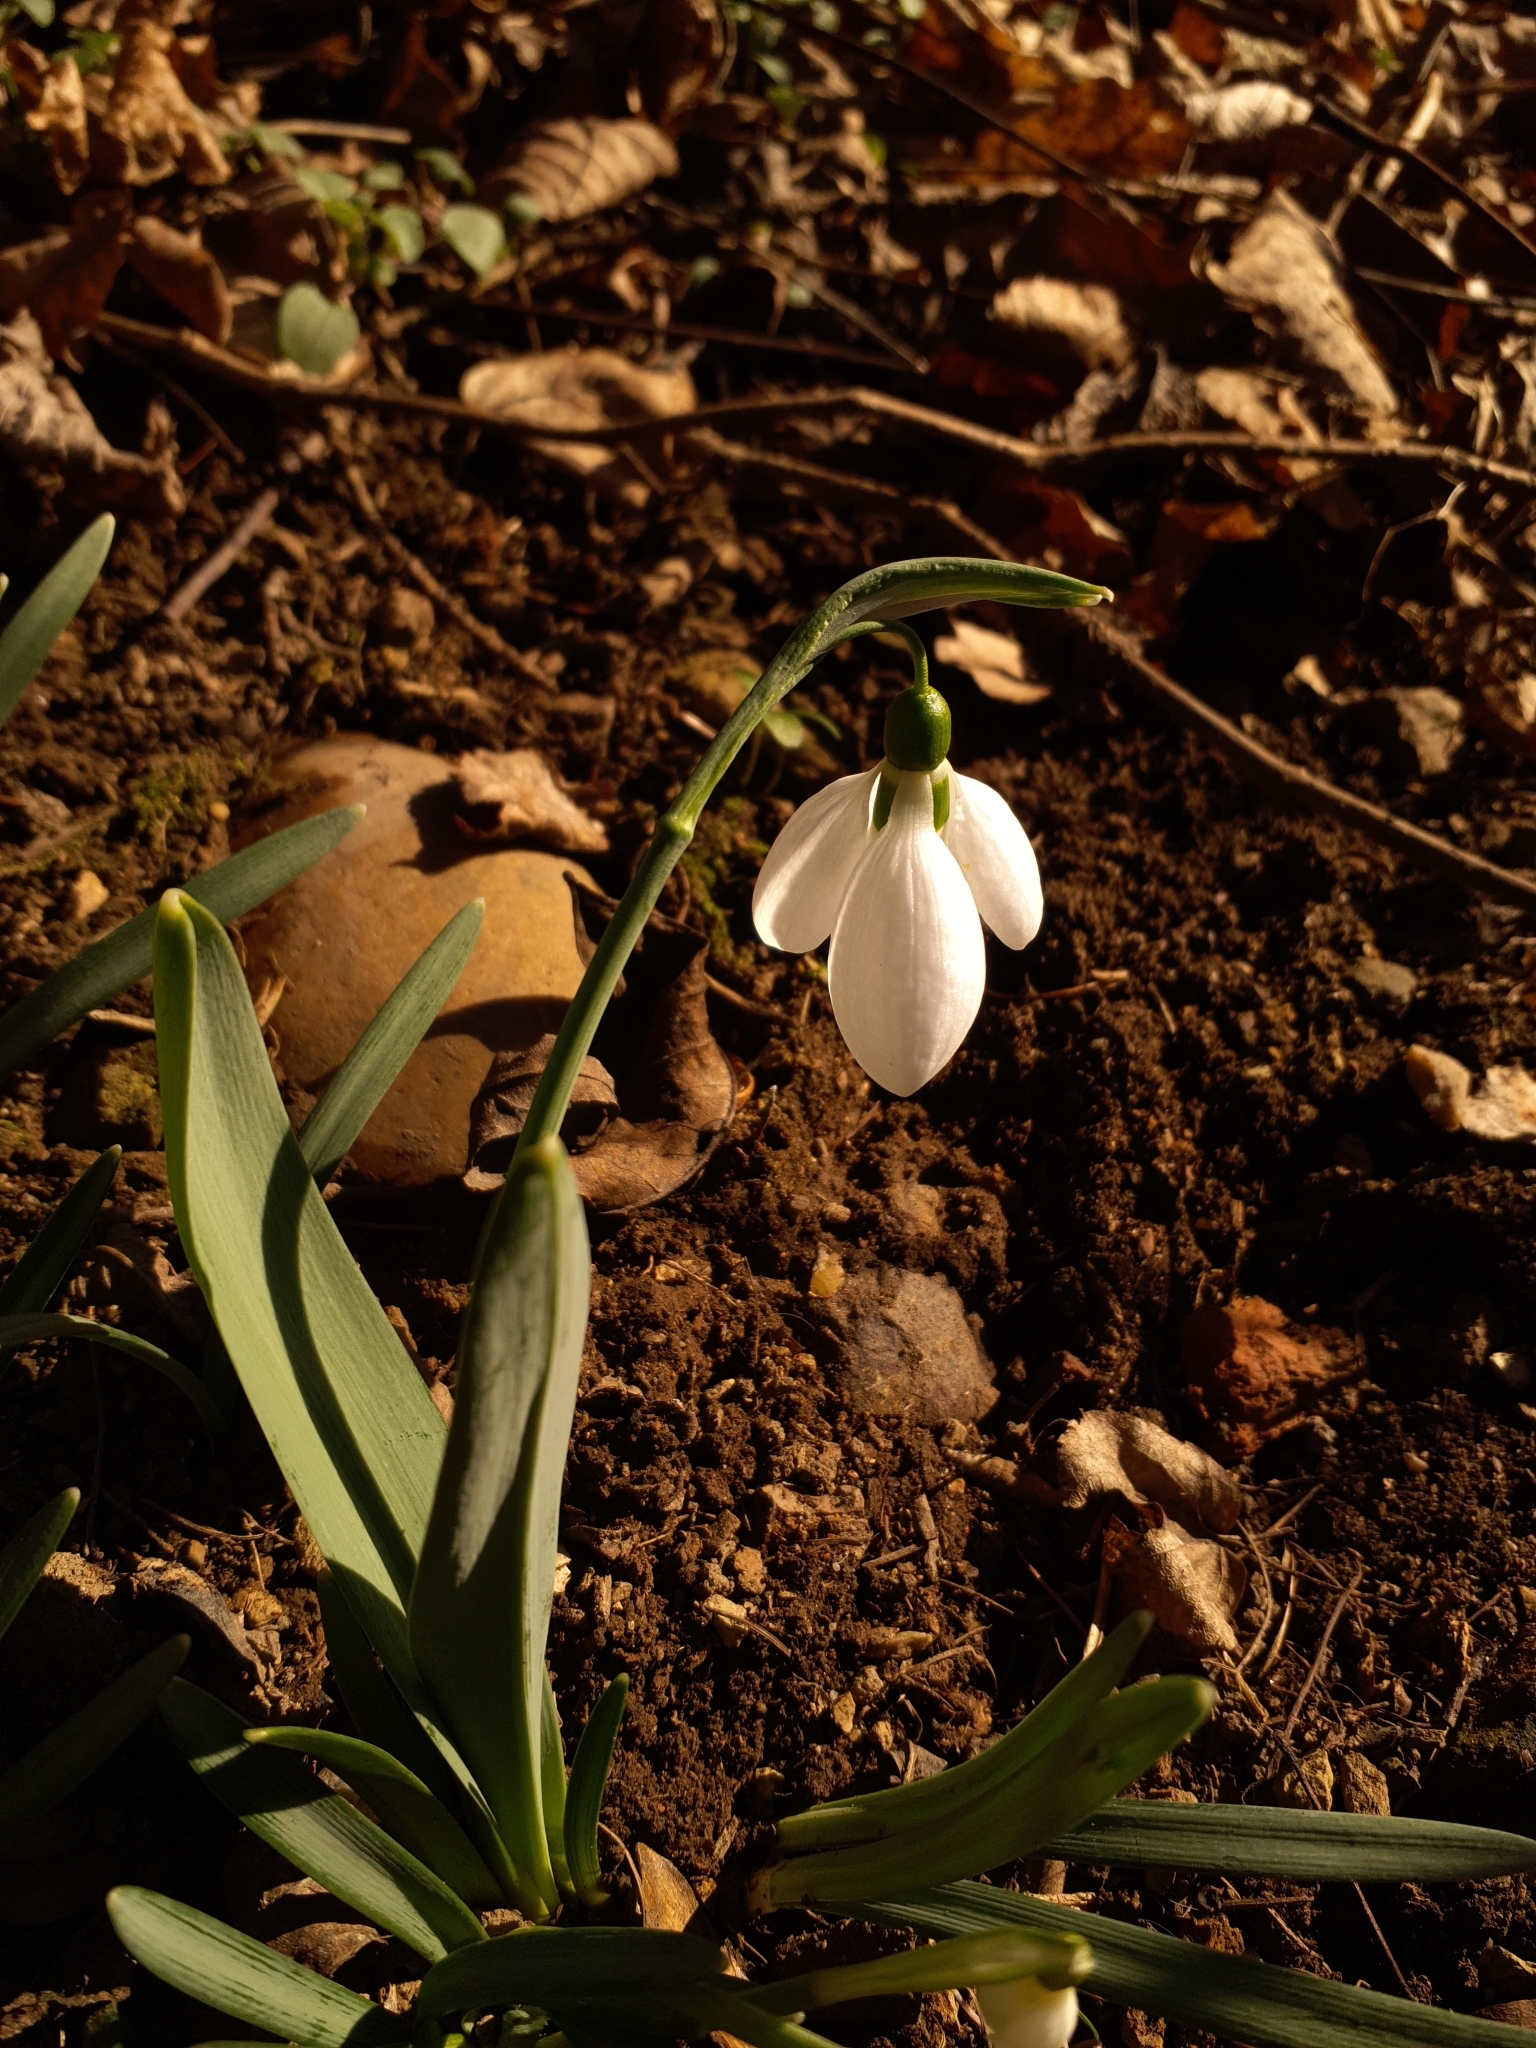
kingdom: Plantae
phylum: Tracheophyta
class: Liliopsida
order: Asparagales
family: Amaryllidaceae
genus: Galanthus
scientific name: Galanthus elwesii
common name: Greater snowdrop
